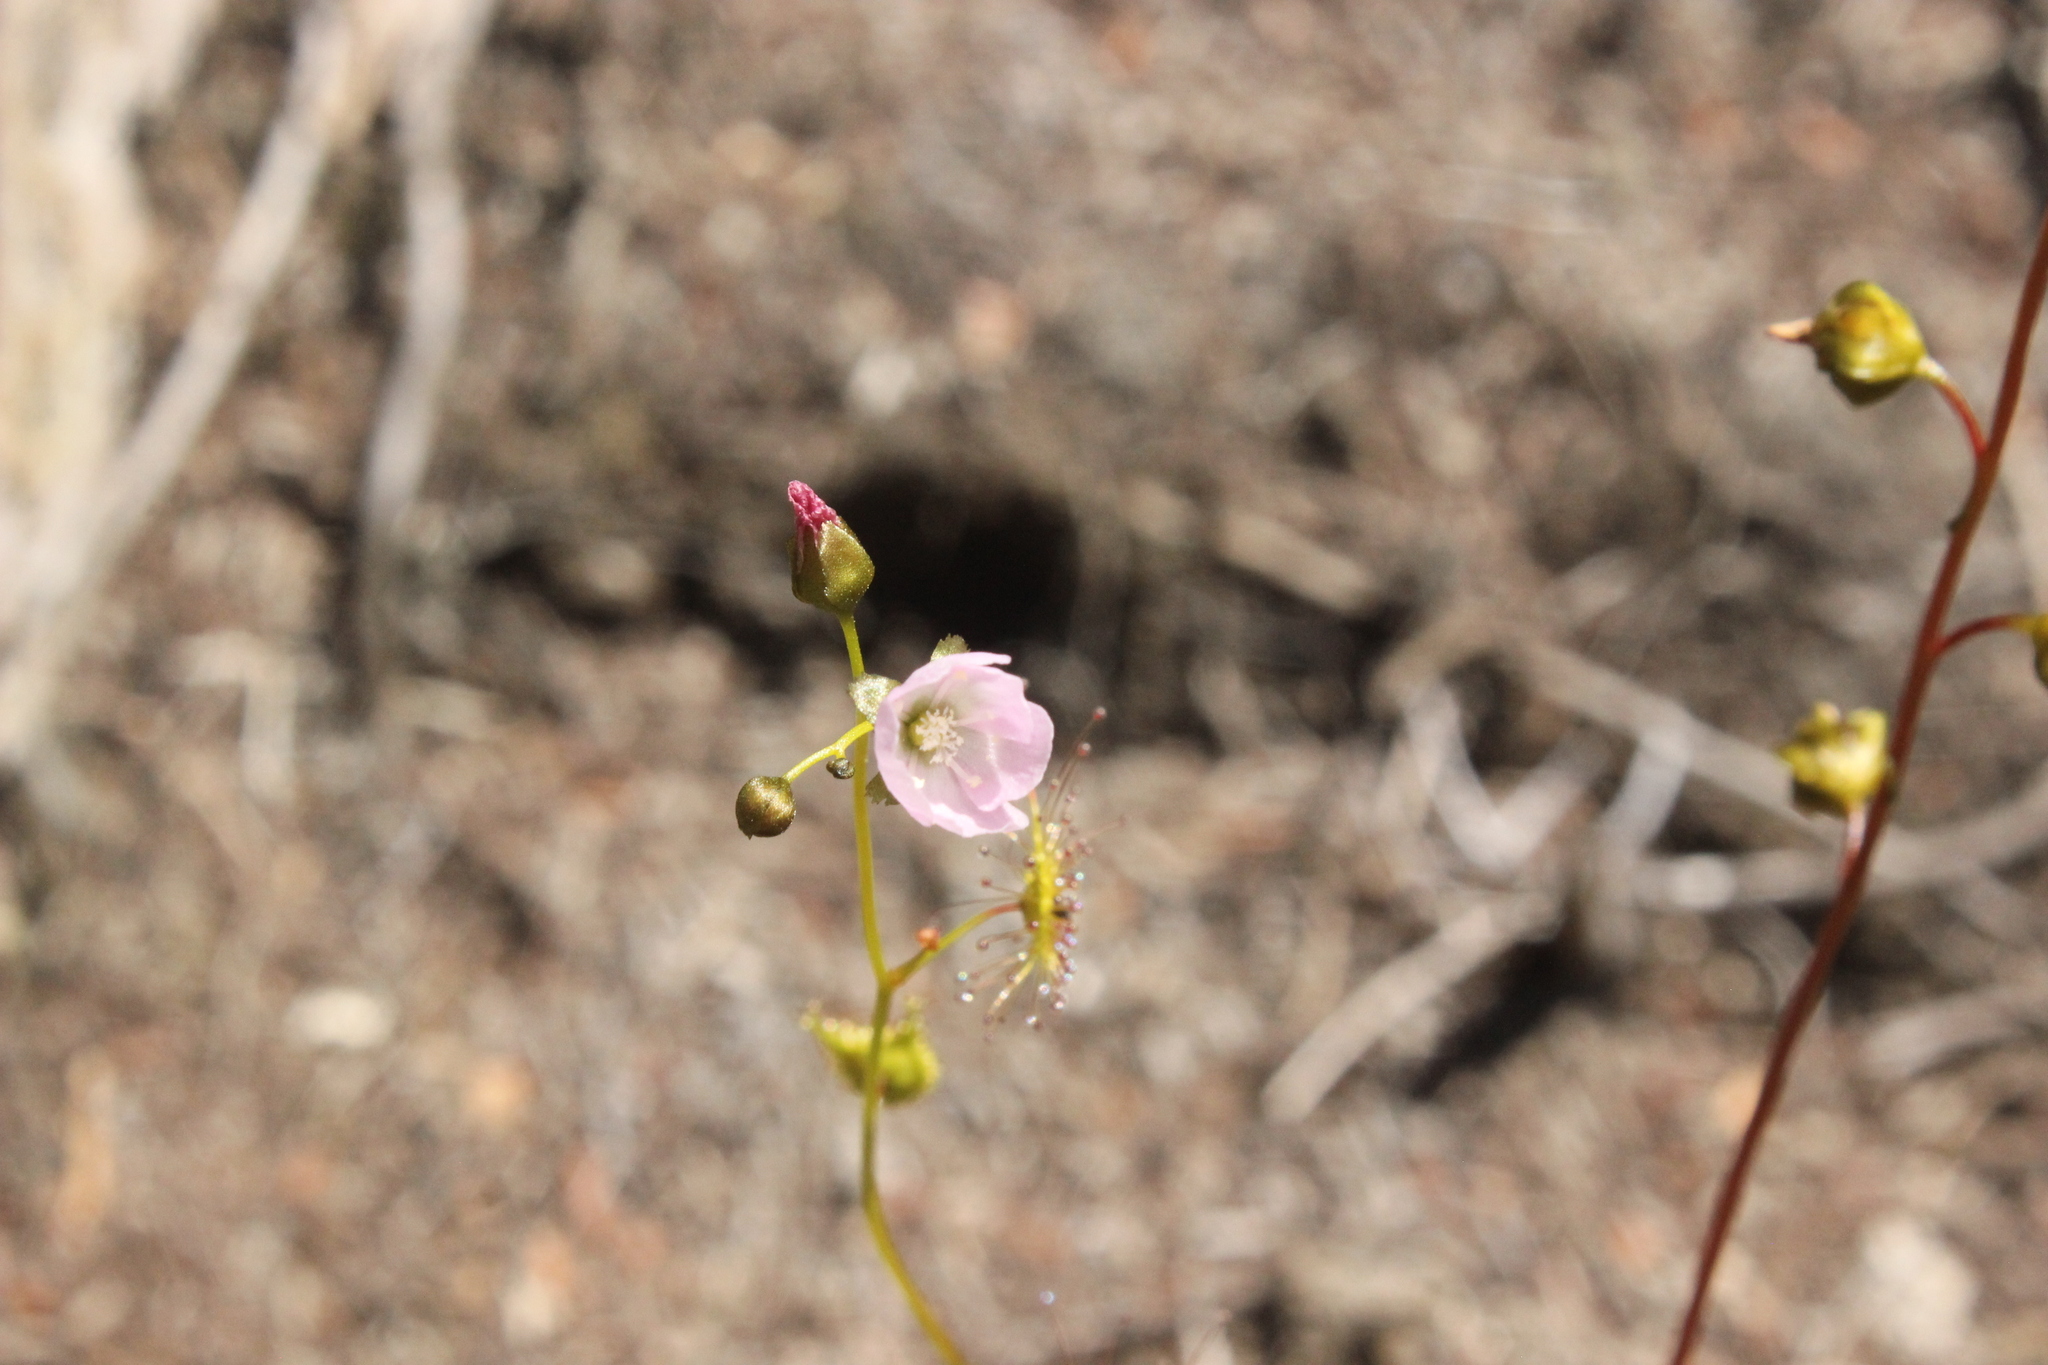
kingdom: Plantae
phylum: Tracheophyta
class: Magnoliopsida
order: Caryophyllales
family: Droseraceae
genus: Drosera
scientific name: Drosera peltata
